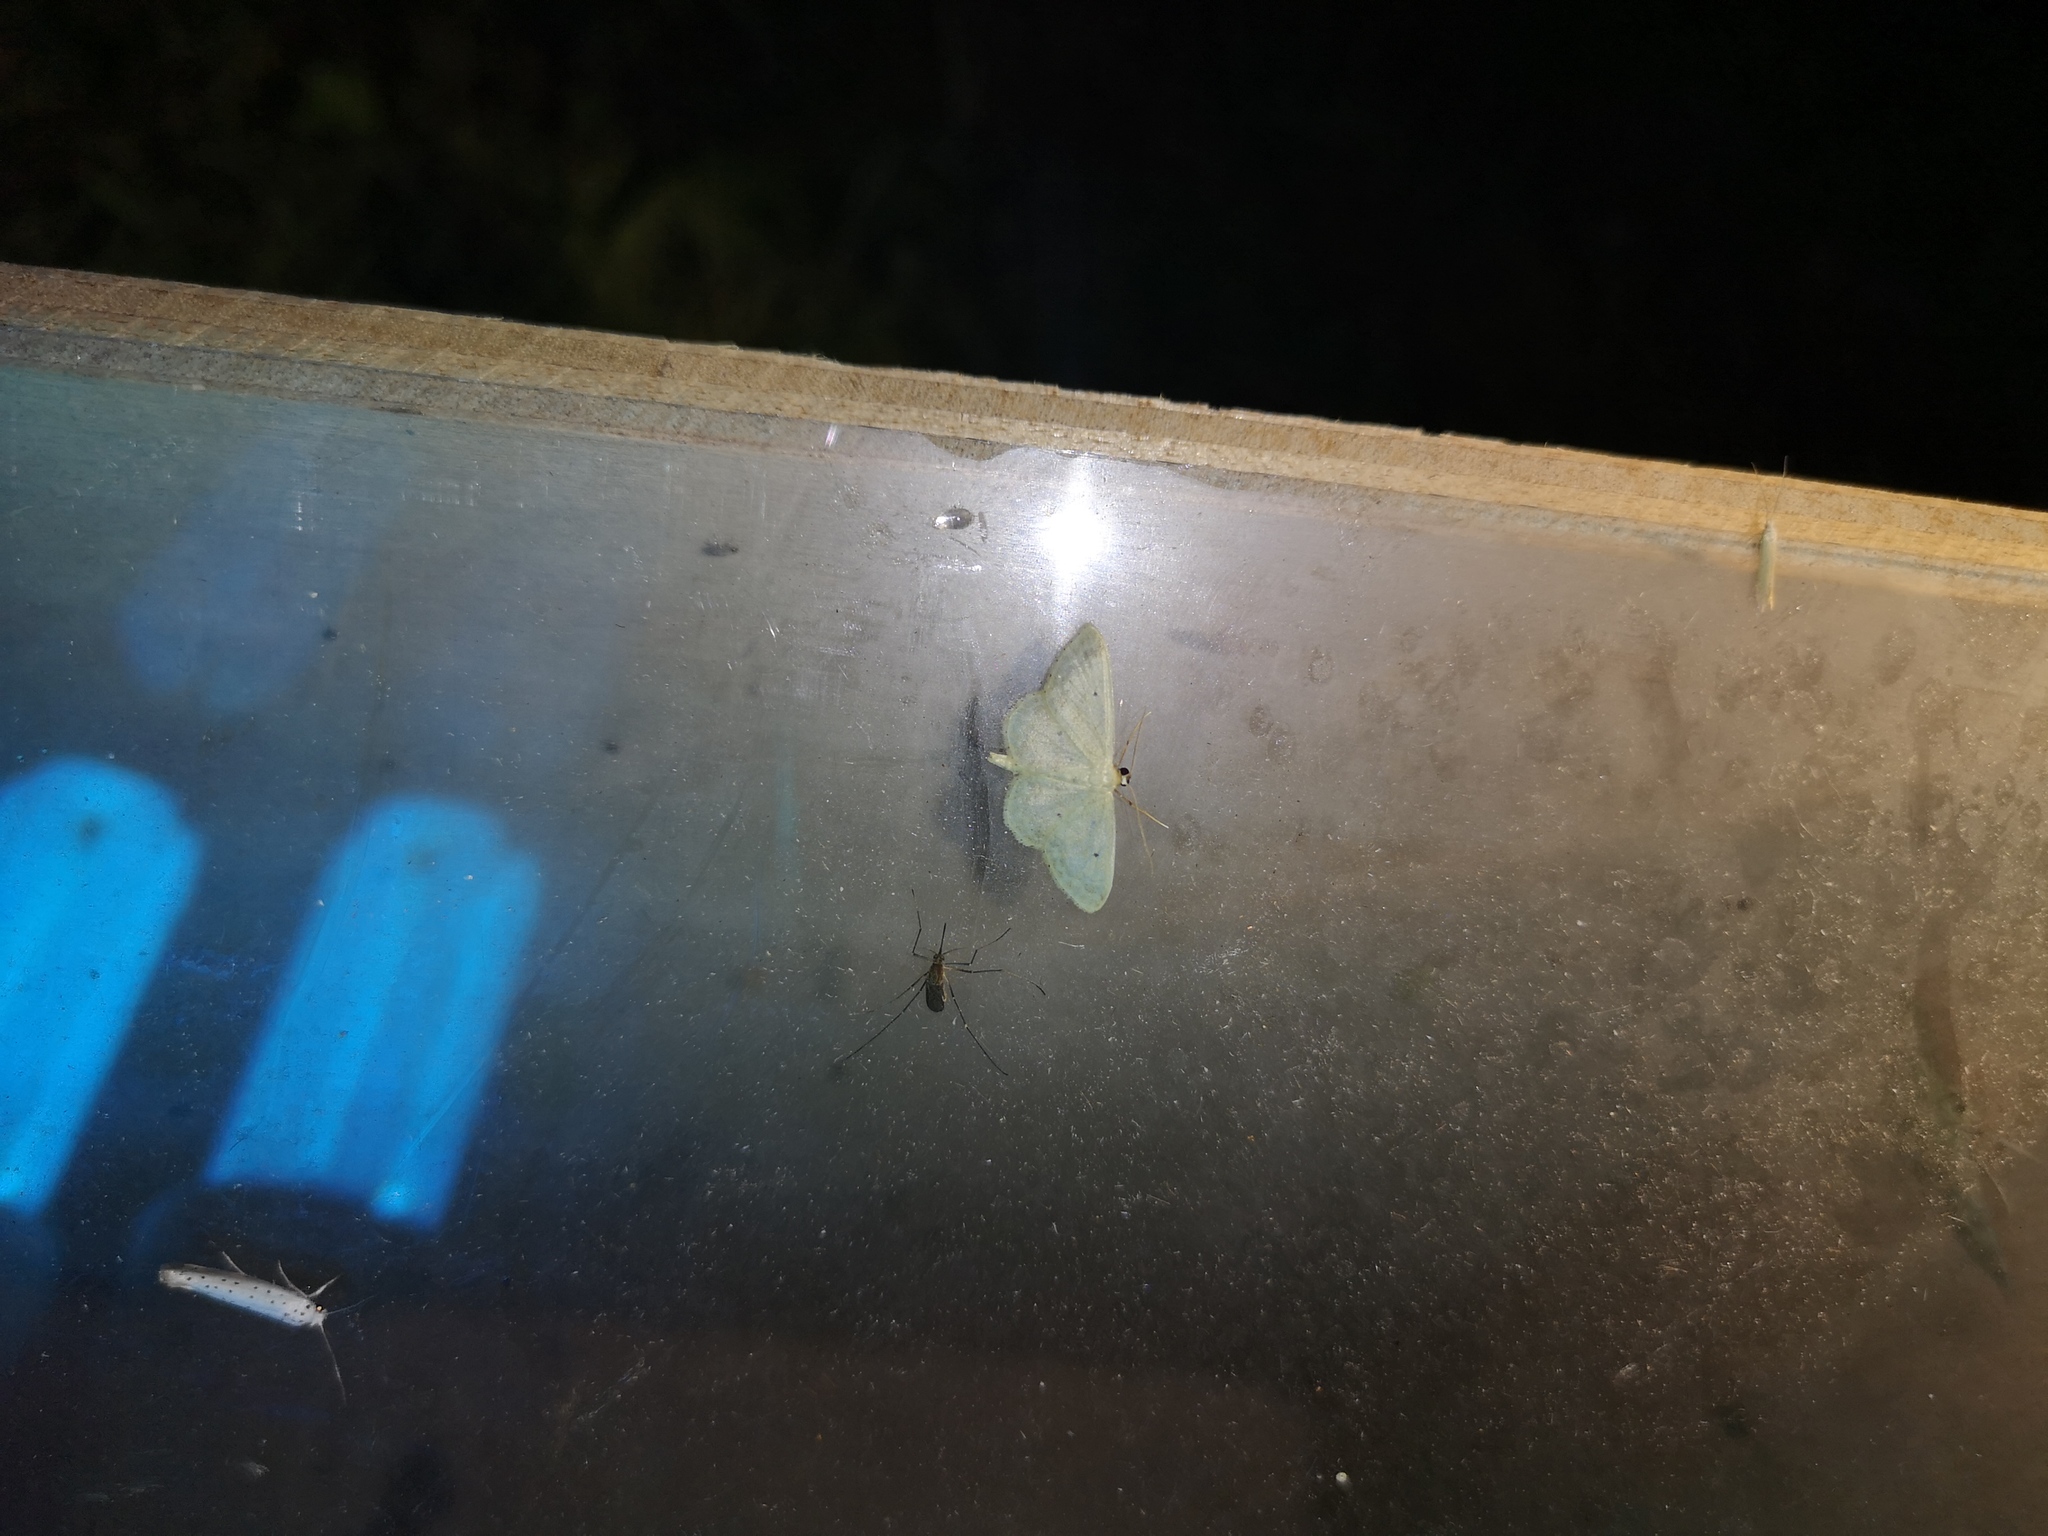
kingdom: Animalia
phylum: Arthropoda
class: Insecta
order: Lepidoptera
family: Geometridae
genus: Idaea
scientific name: Idaea biselata
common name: Small fan-footed wave
